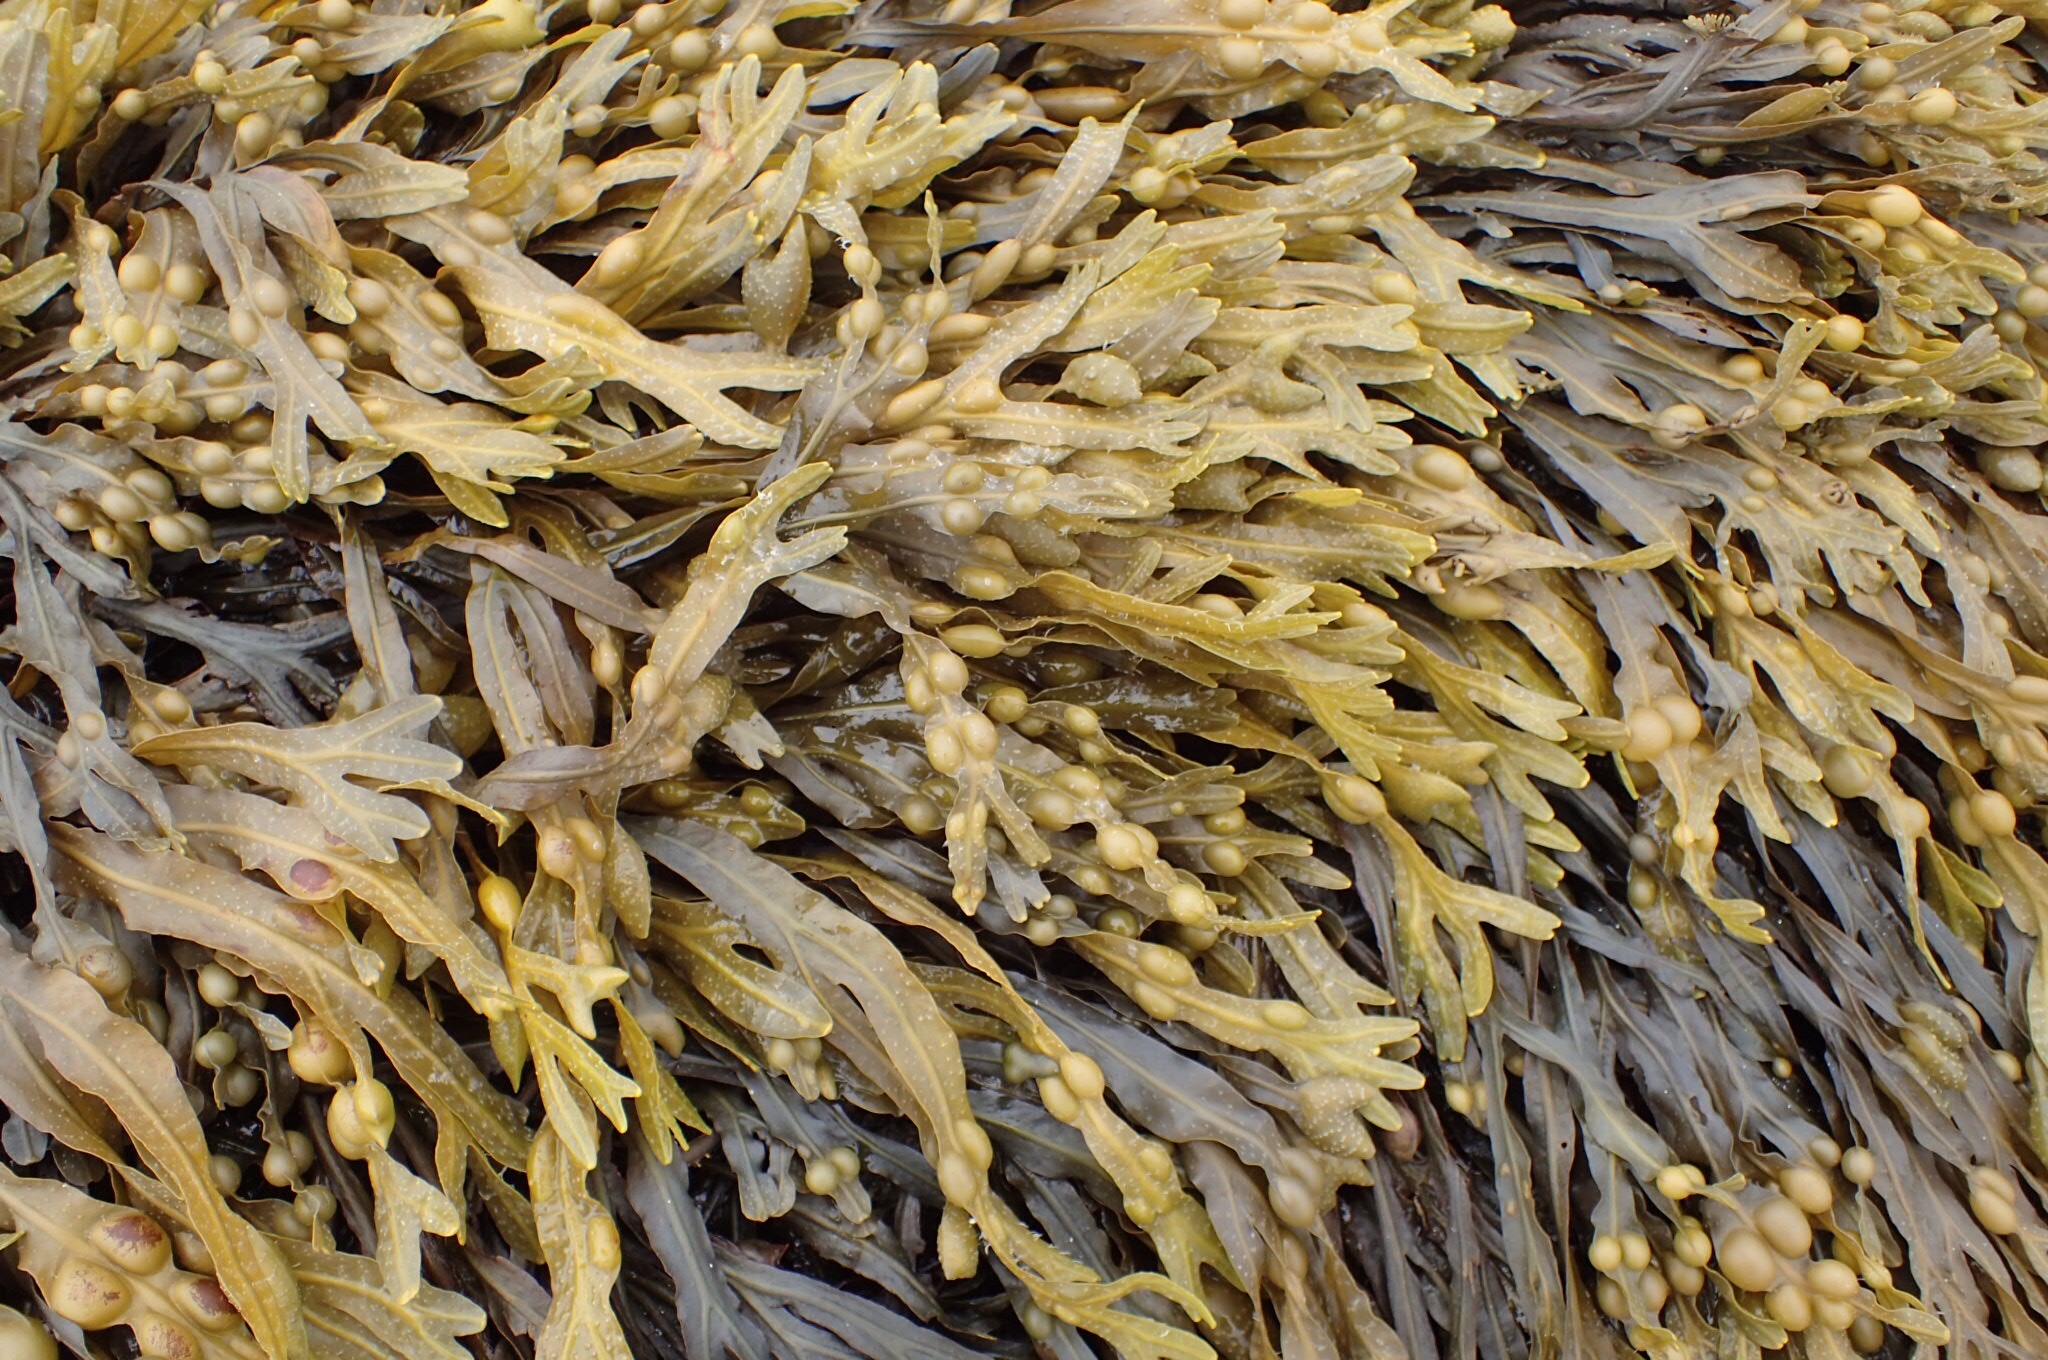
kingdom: Chromista
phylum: Ochrophyta
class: Phaeophyceae
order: Fucales
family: Fucaceae
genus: Fucus
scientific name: Fucus vesiculosus
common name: Bladder wrack
